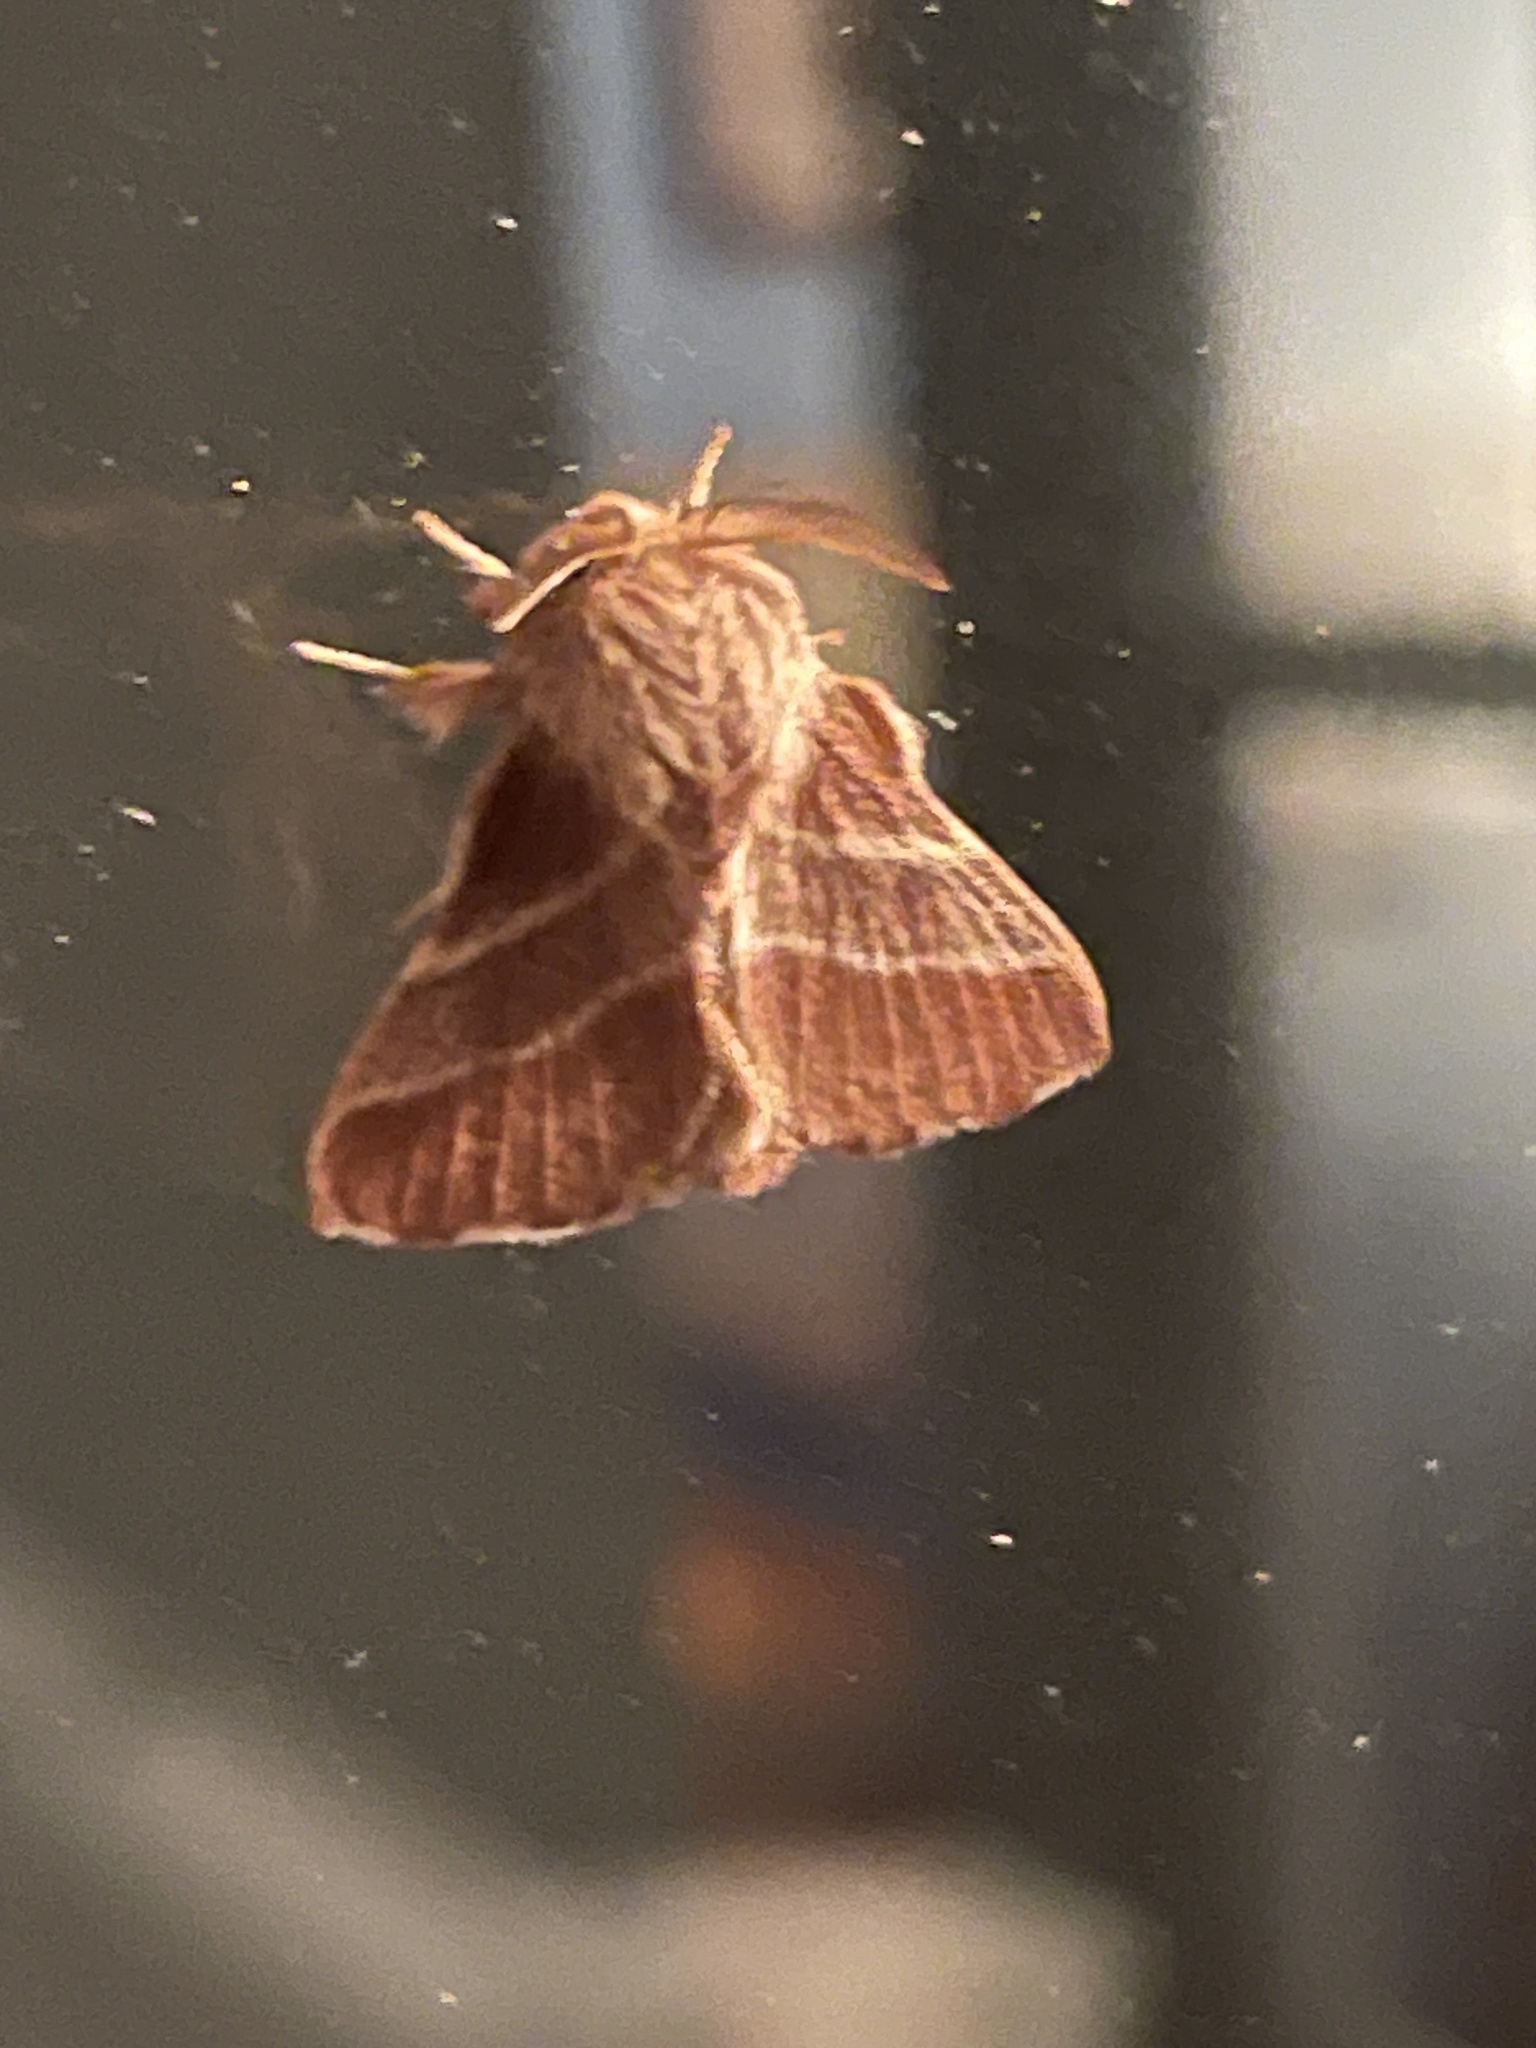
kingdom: Animalia
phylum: Arthropoda
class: Insecta
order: Lepidoptera
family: Lasiocampidae
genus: Malacosoma
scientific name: Malacosoma americana
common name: Eastern tent caterpillar moth
